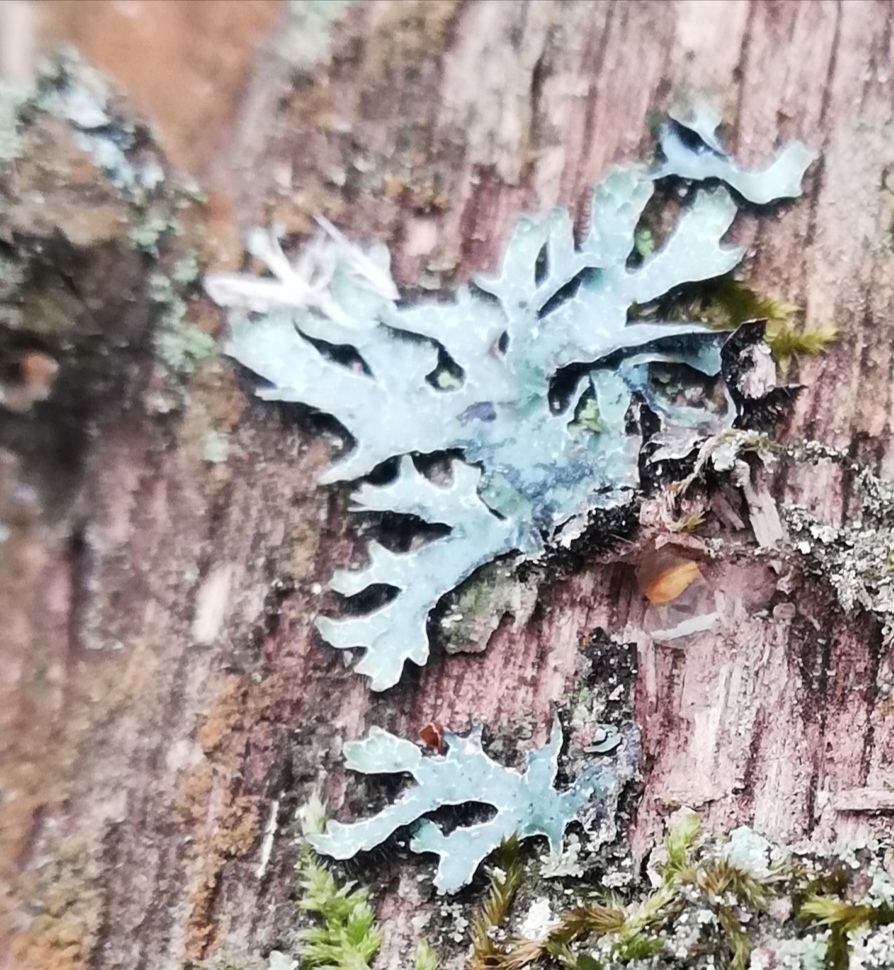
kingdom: Fungi
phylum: Ascomycota
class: Lecanoromycetes
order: Lecanorales
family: Parmeliaceae
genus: Parmelia
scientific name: Parmelia sulcata
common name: Netted shield lichen
